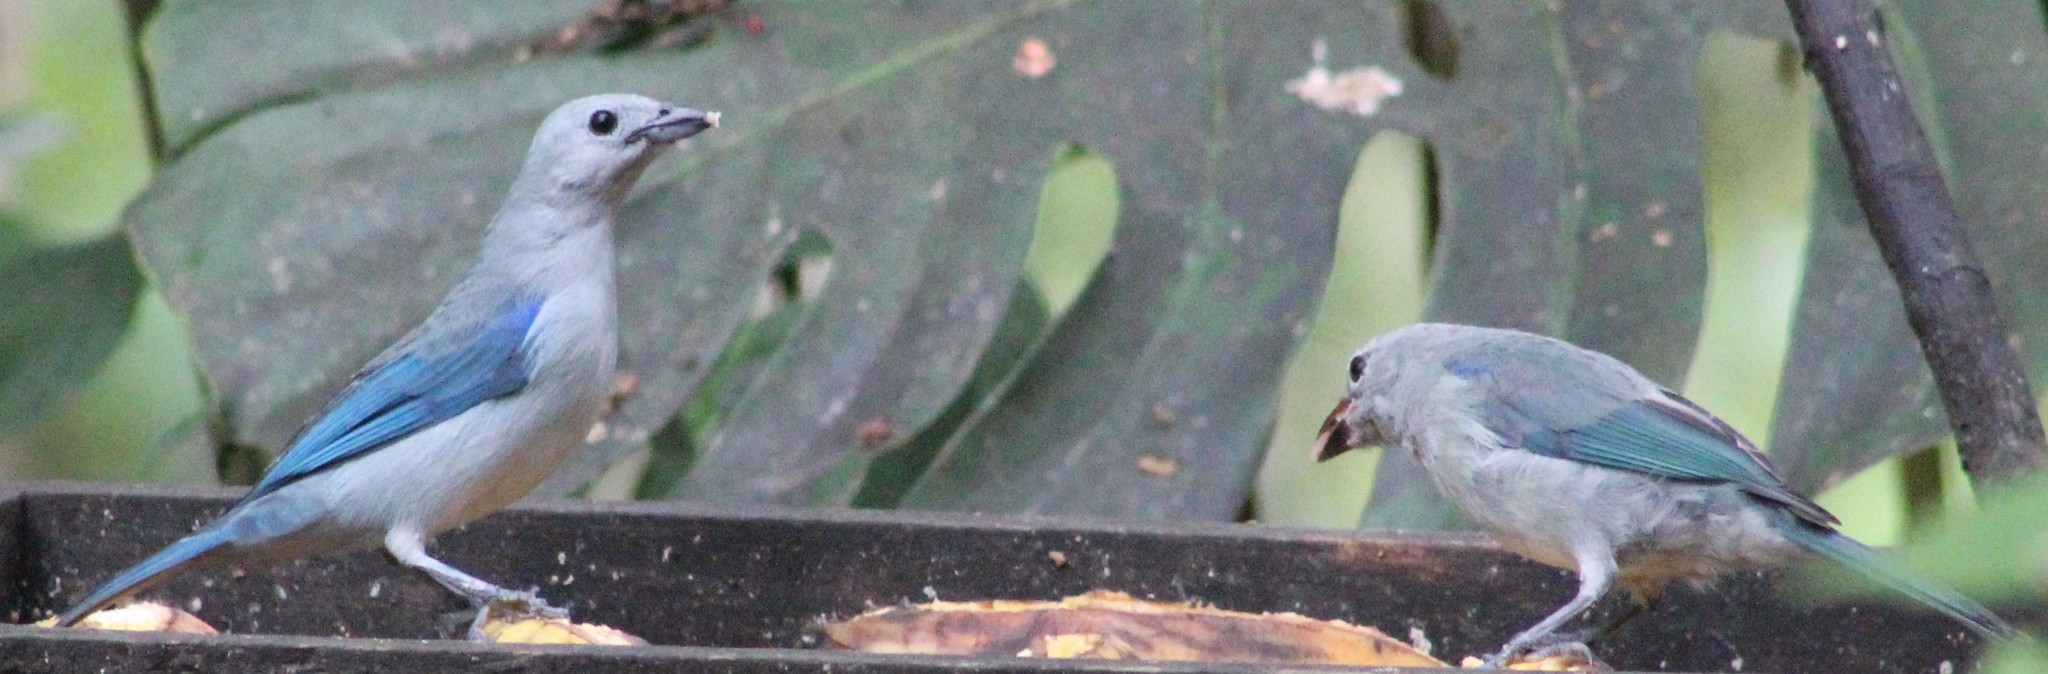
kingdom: Animalia
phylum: Chordata
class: Aves
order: Passeriformes
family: Thraupidae
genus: Thraupis
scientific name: Thraupis episcopus
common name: Blue-grey tanager
